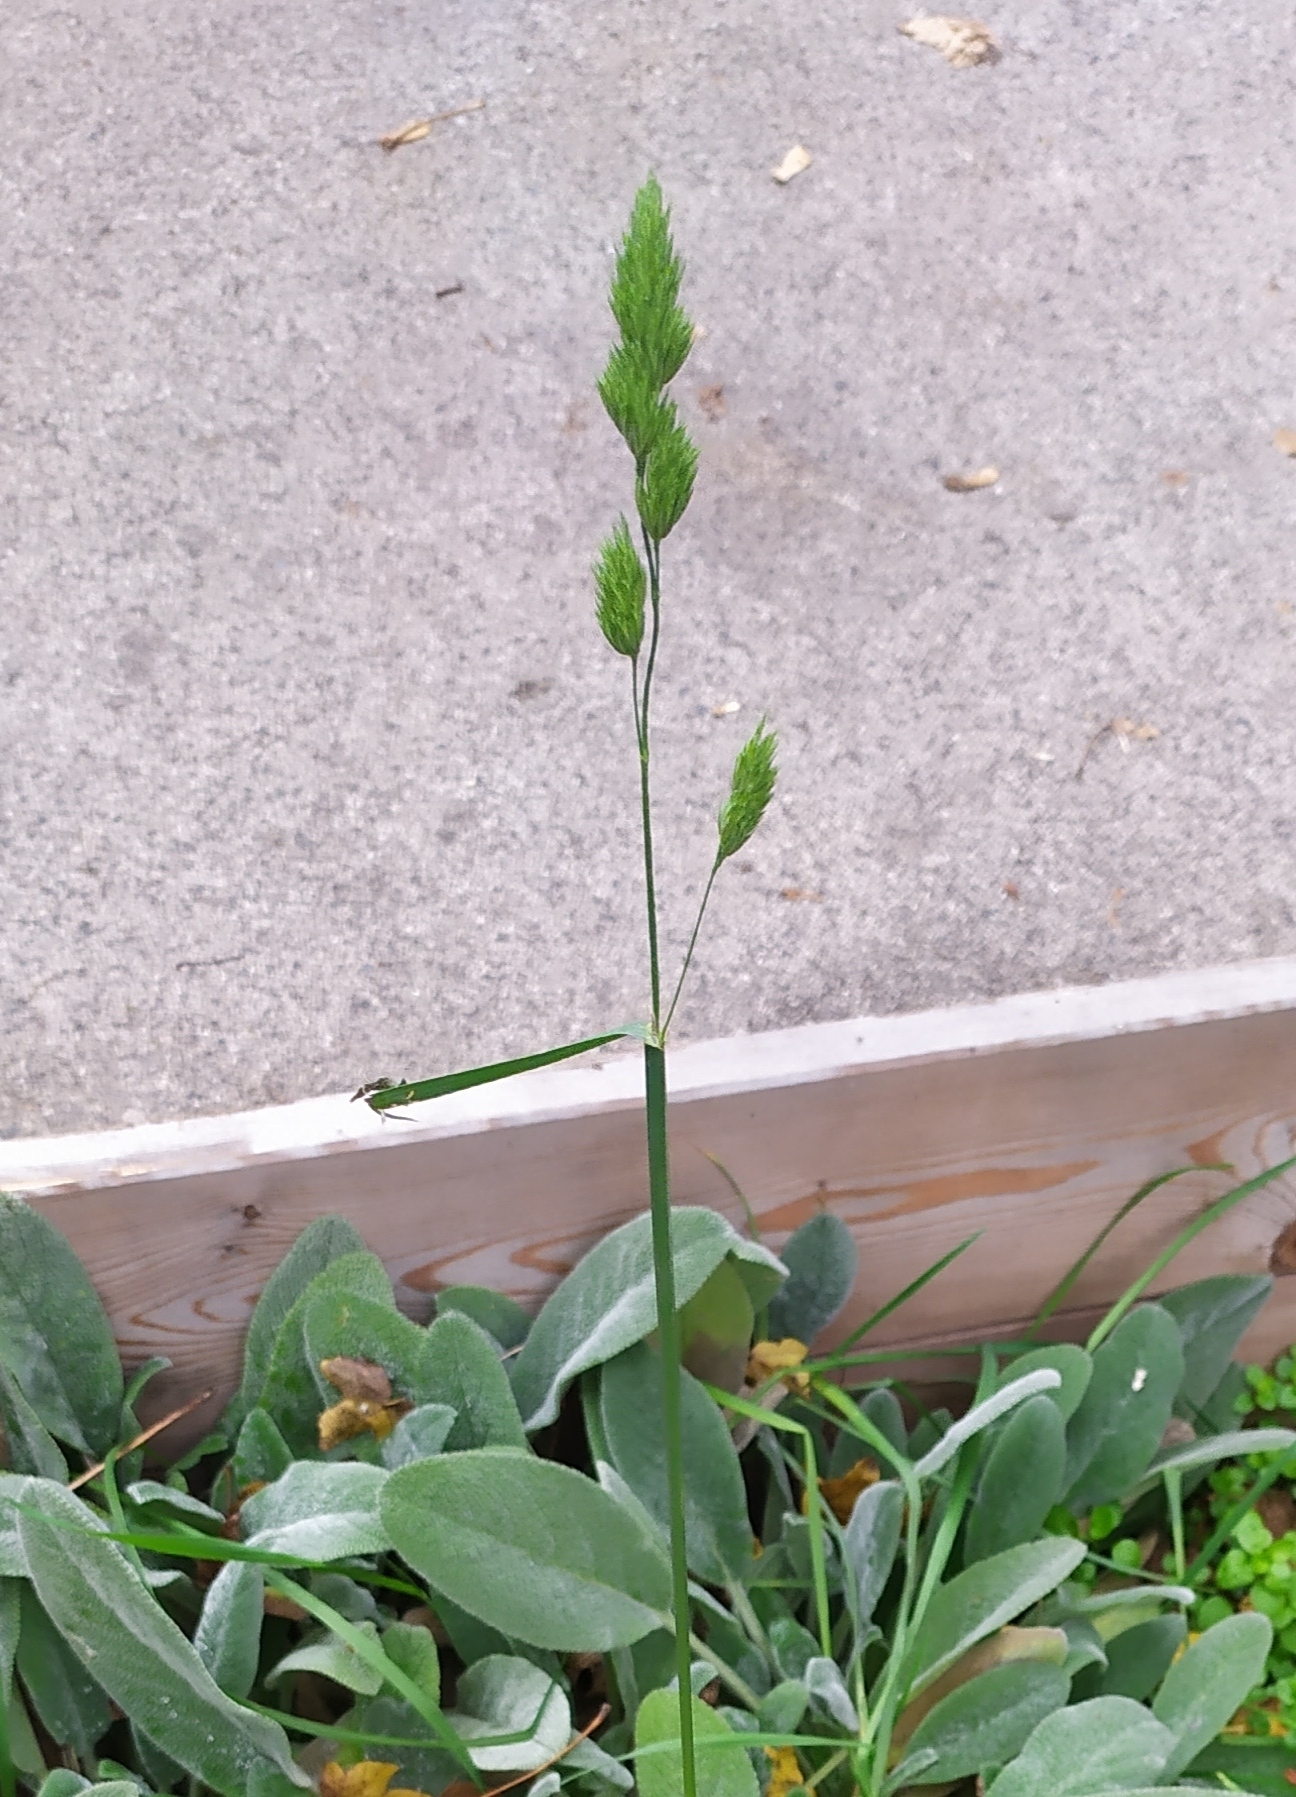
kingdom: Plantae
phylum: Tracheophyta
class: Liliopsida
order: Poales
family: Poaceae
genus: Dactylis
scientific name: Dactylis glomerata
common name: Orchardgrass
